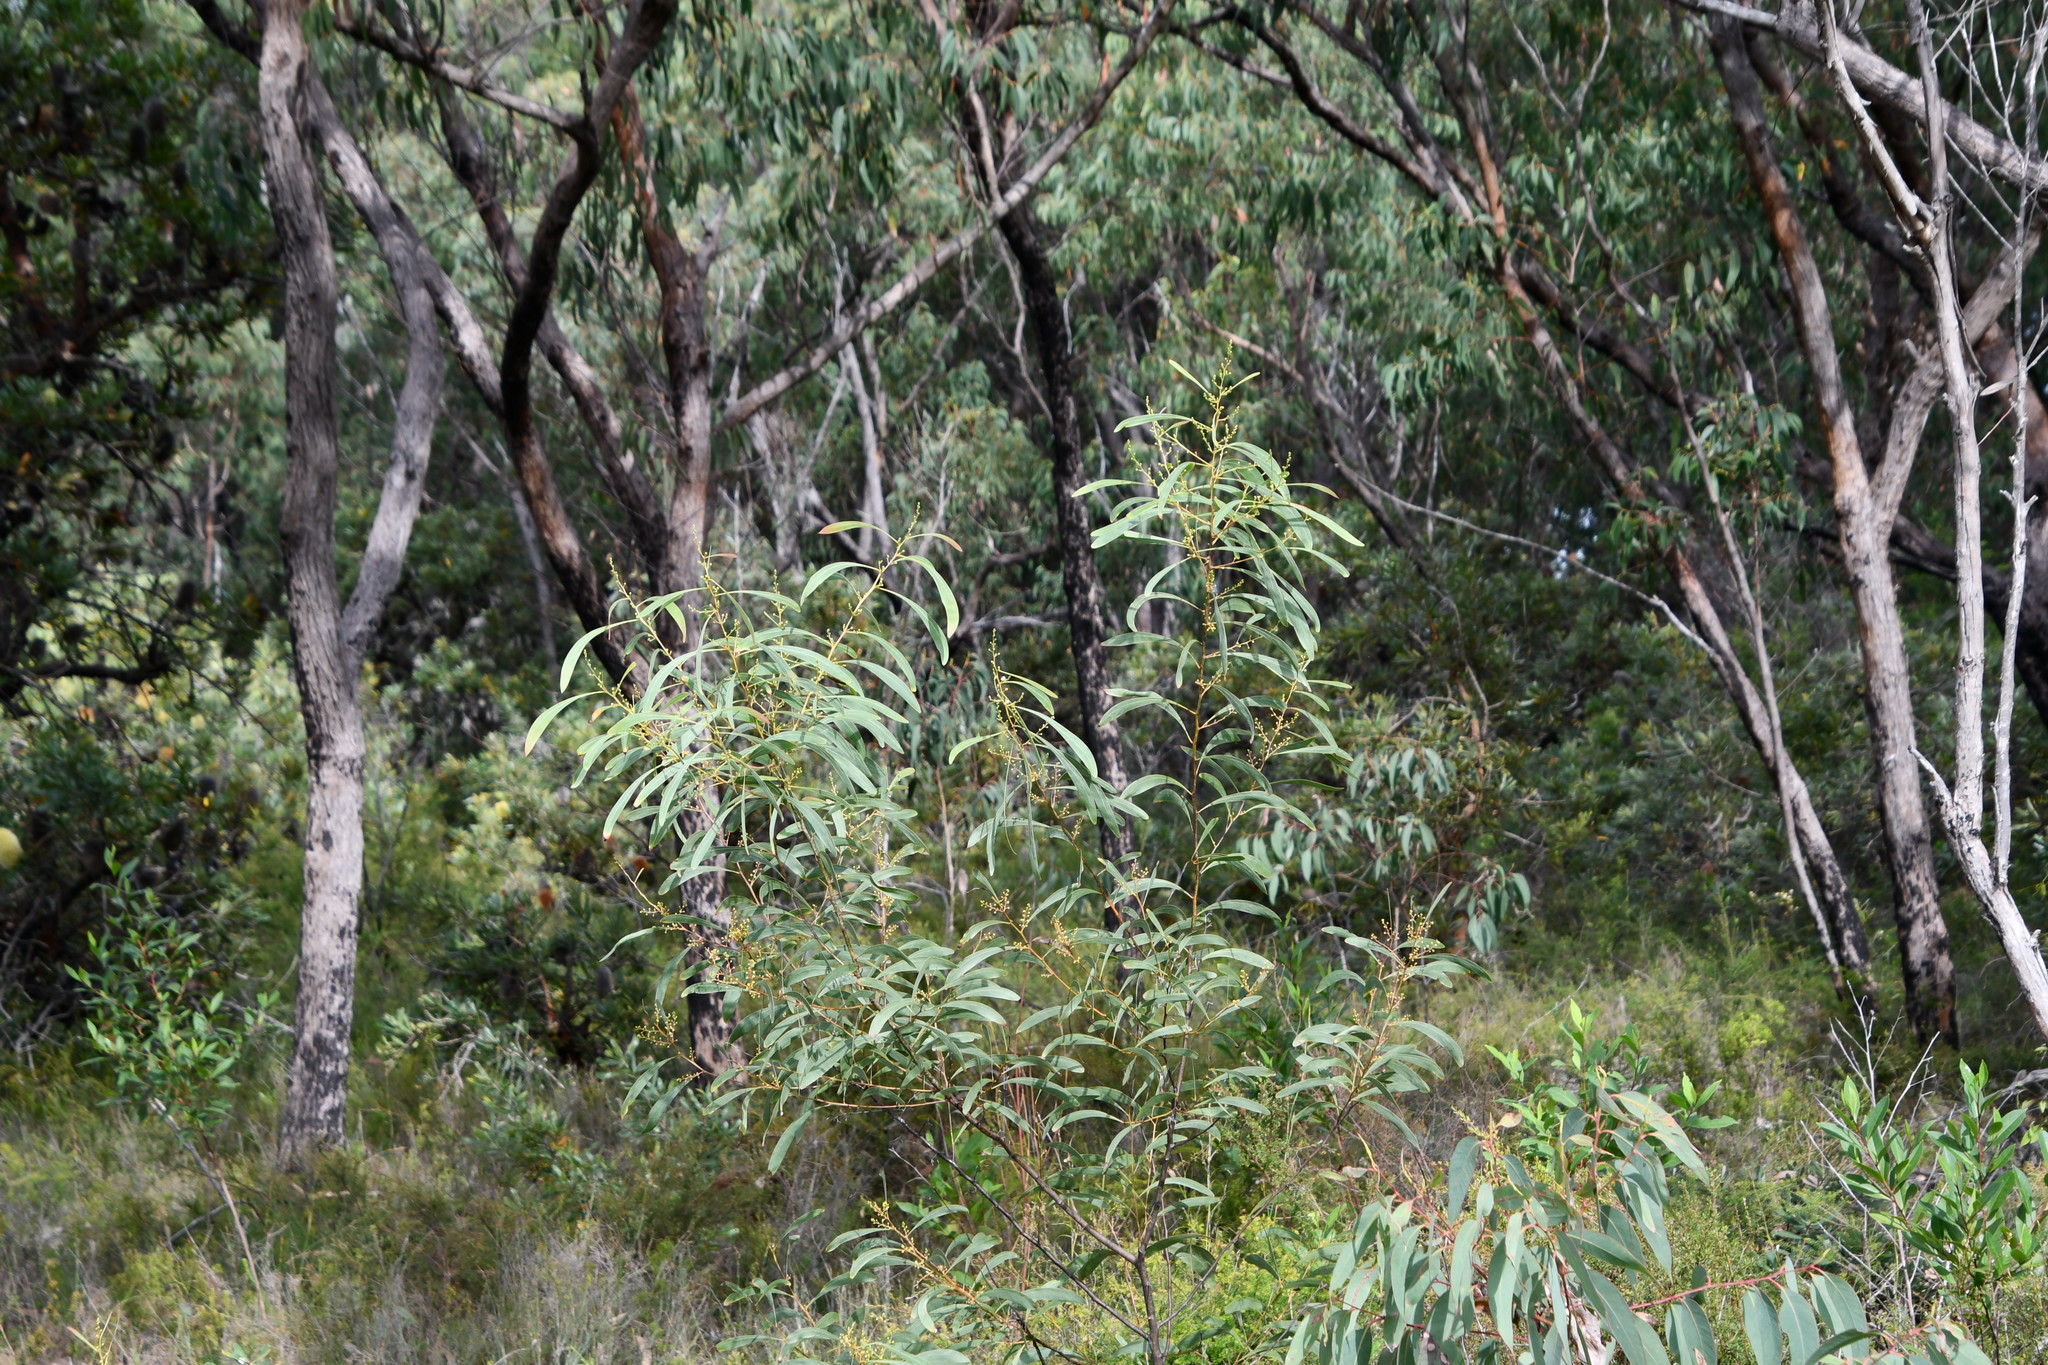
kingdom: Plantae
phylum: Tracheophyta
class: Magnoliopsida
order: Fabales
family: Fabaceae
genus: Acacia
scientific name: Acacia falcata
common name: Burra acacia
